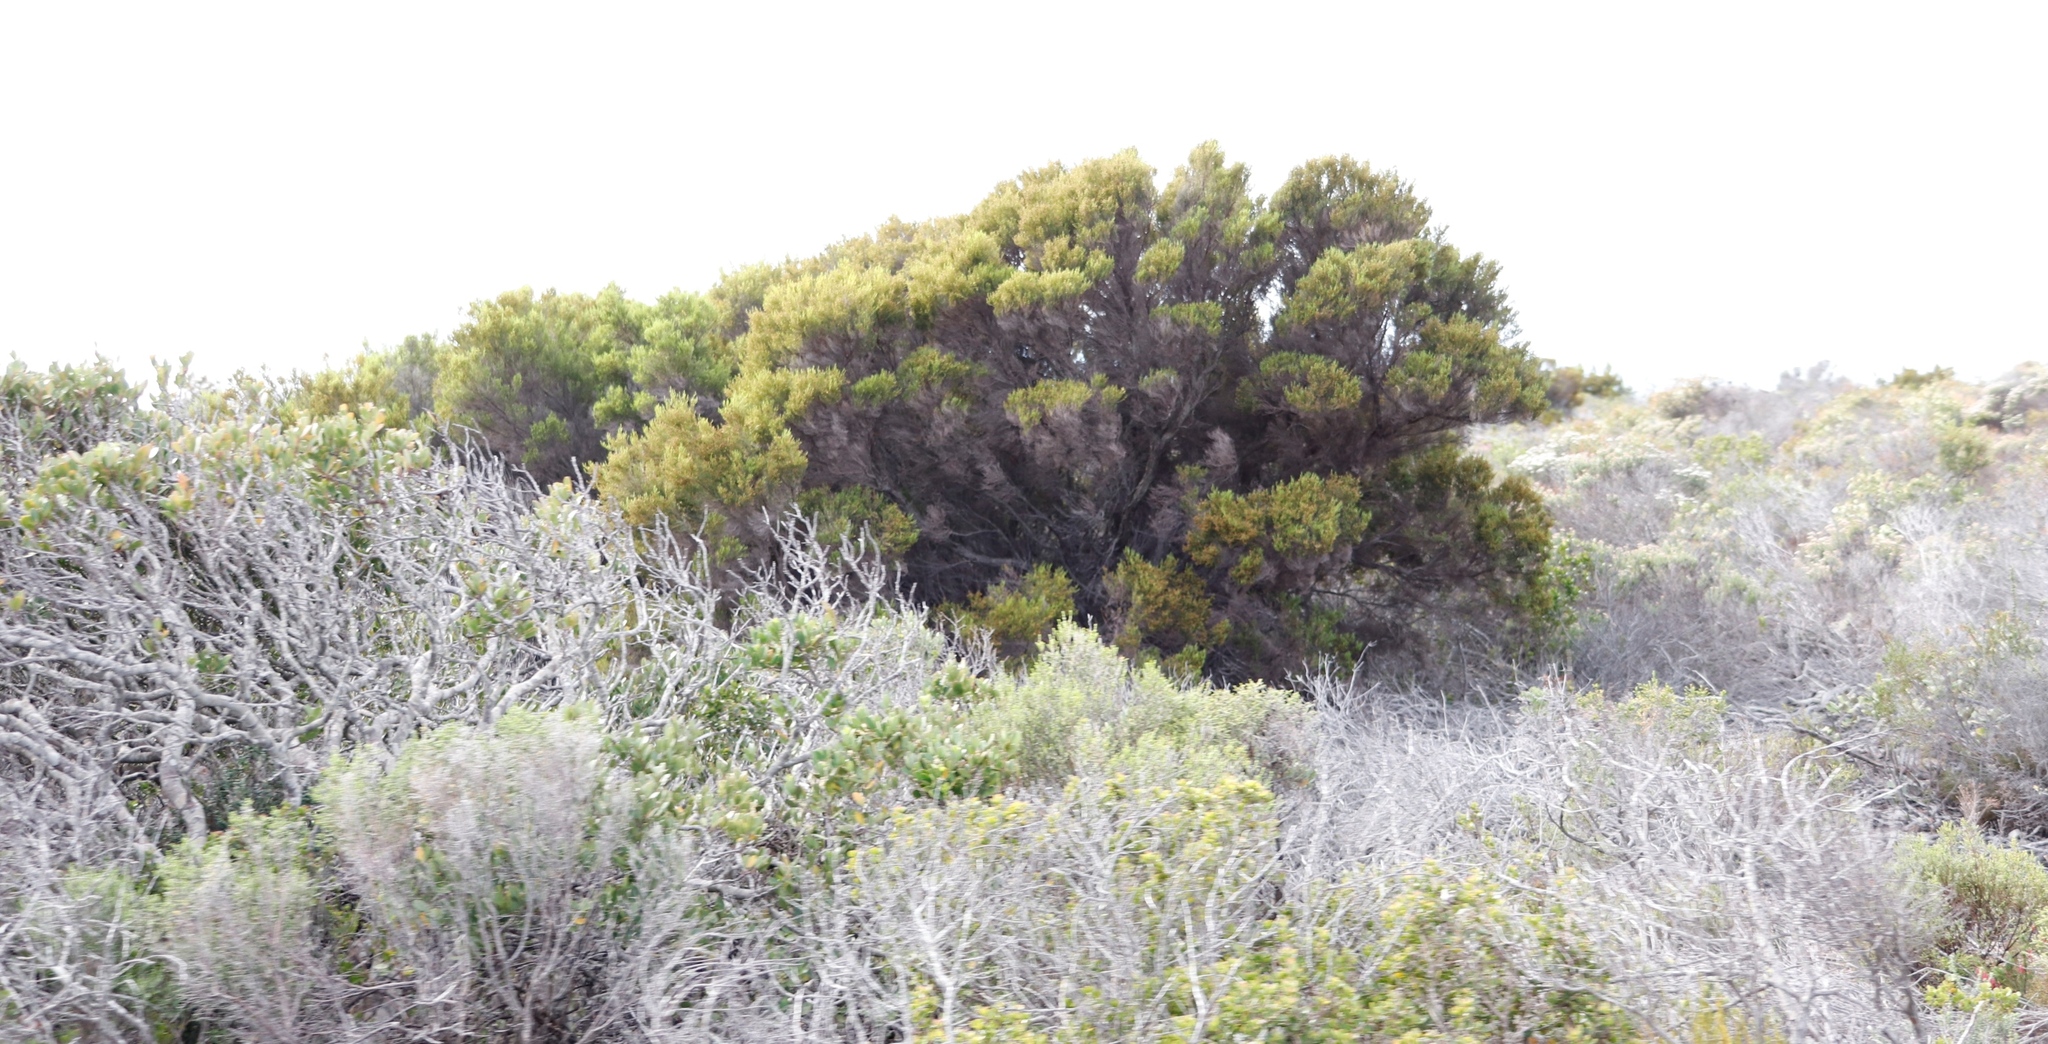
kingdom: Plantae
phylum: Tracheophyta
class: Magnoliopsida
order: Ericales
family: Ericaceae
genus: Erica
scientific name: Erica tristis
